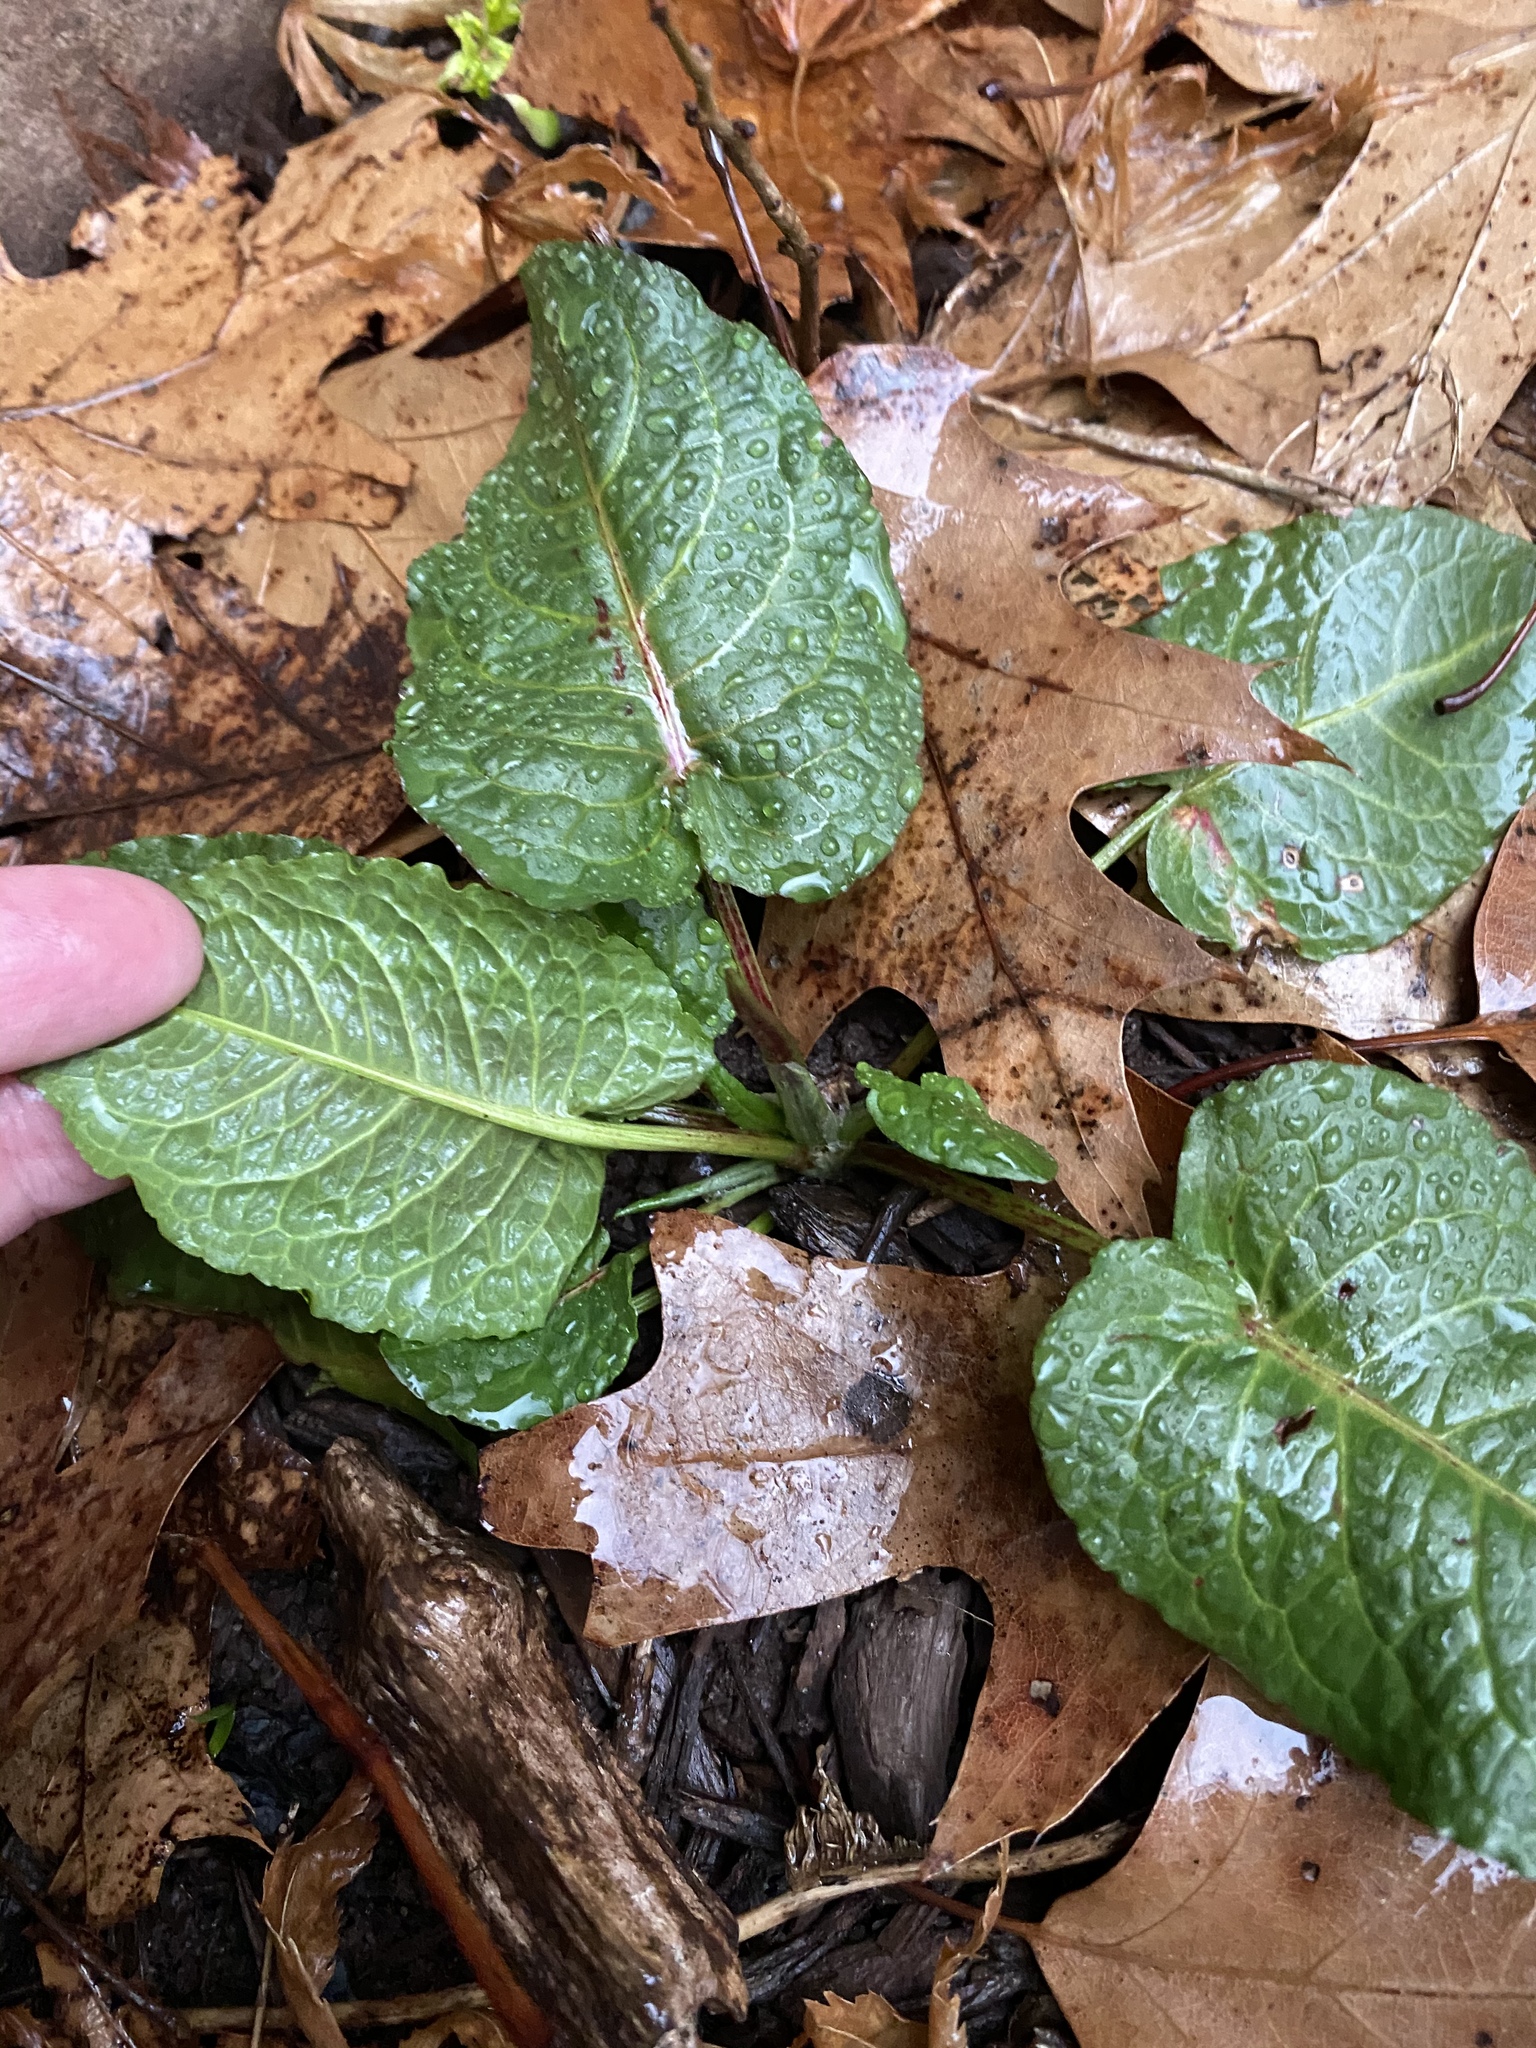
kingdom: Plantae
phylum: Tracheophyta
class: Magnoliopsida
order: Caryophyllales
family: Polygonaceae
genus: Rumex
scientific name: Rumex obtusifolius
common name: Bitter dock
